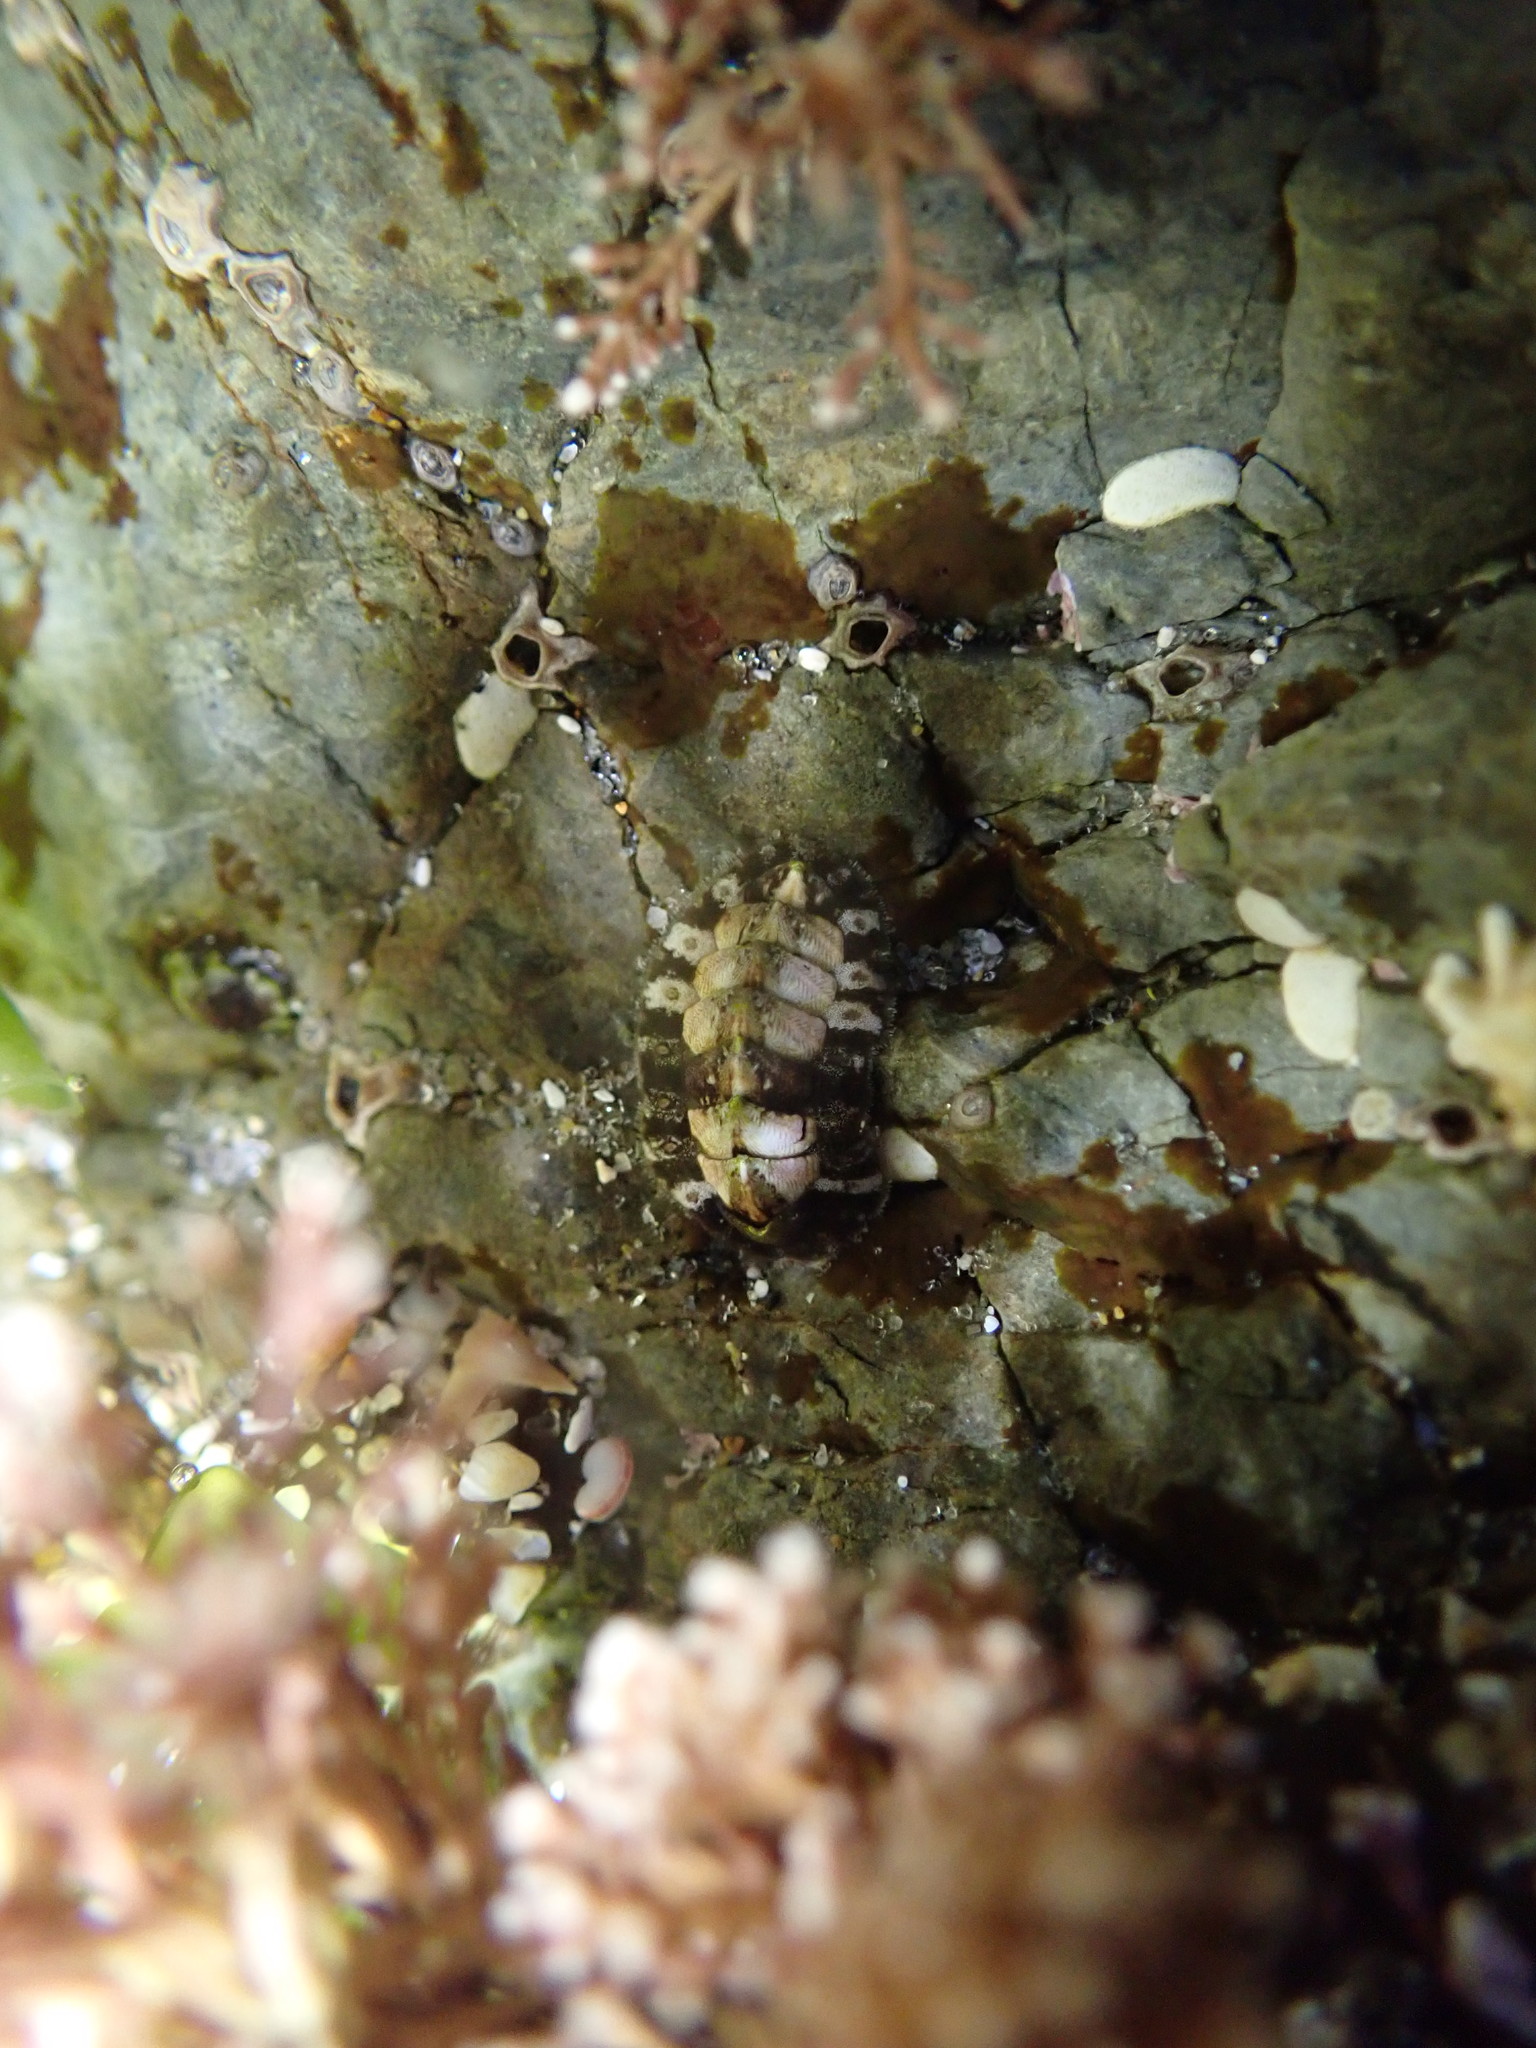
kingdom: Animalia
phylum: Mollusca
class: Polyplacophora
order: Chitonida
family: Mopaliidae
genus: Plaxiphora
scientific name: Plaxiphora caelata
